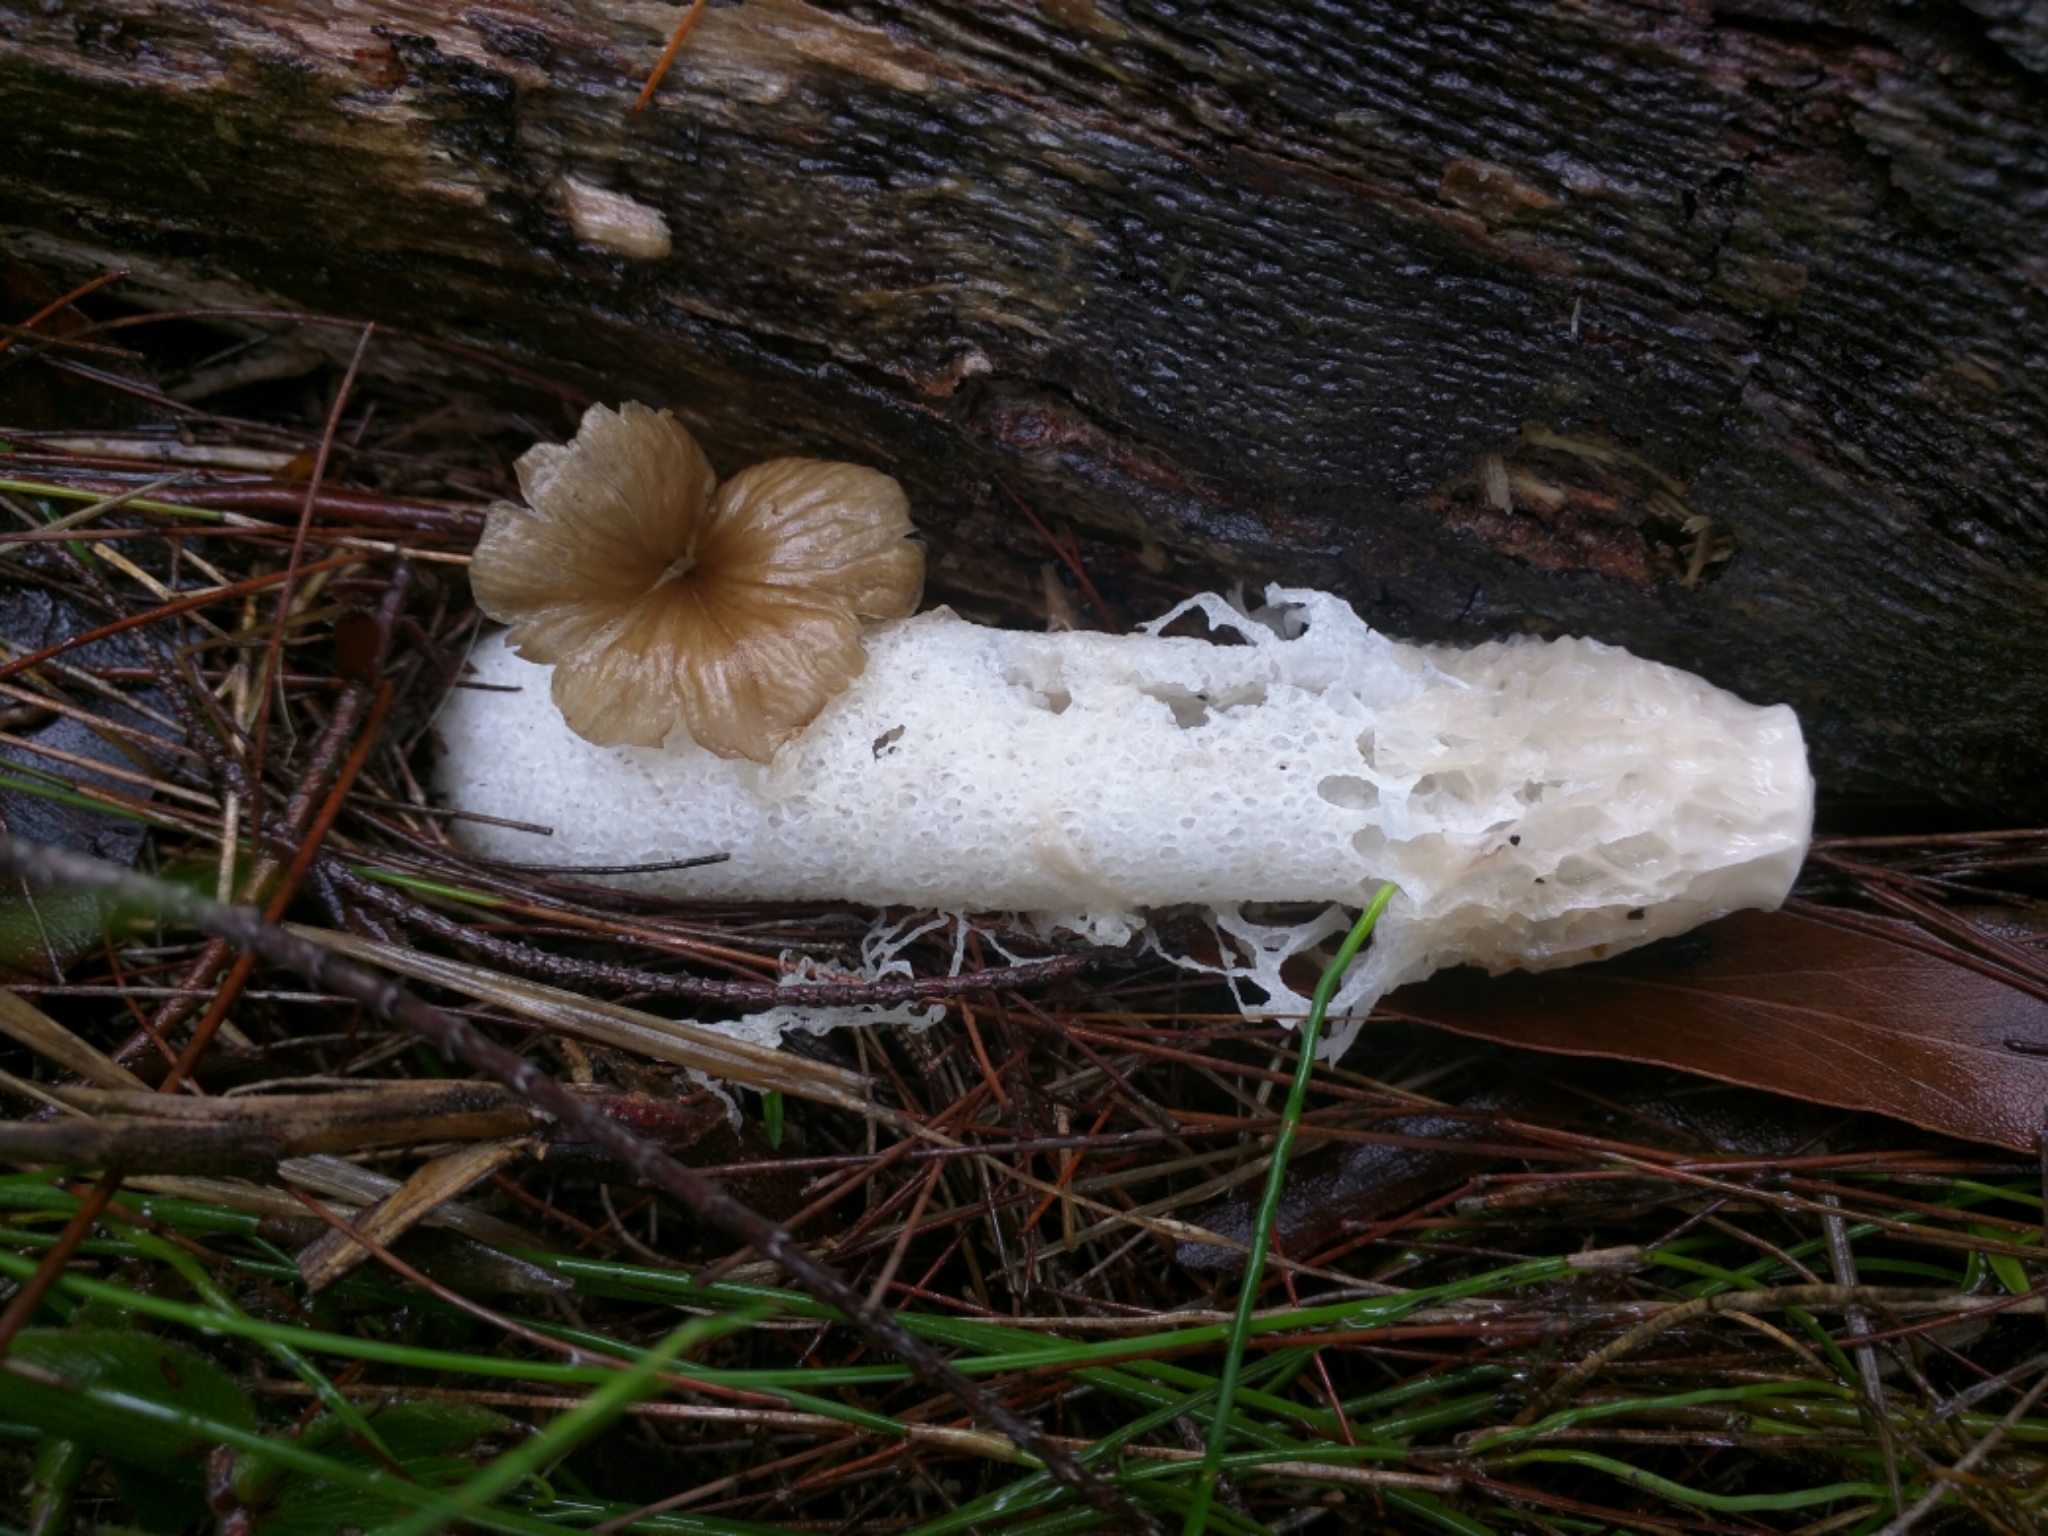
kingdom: Fungi
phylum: Basidiomycota
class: Agaricomycetes
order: Phallales
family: Phallaceae
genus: Phallus
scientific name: Phallus indusiatus
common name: Bridal veil stinkhorn
